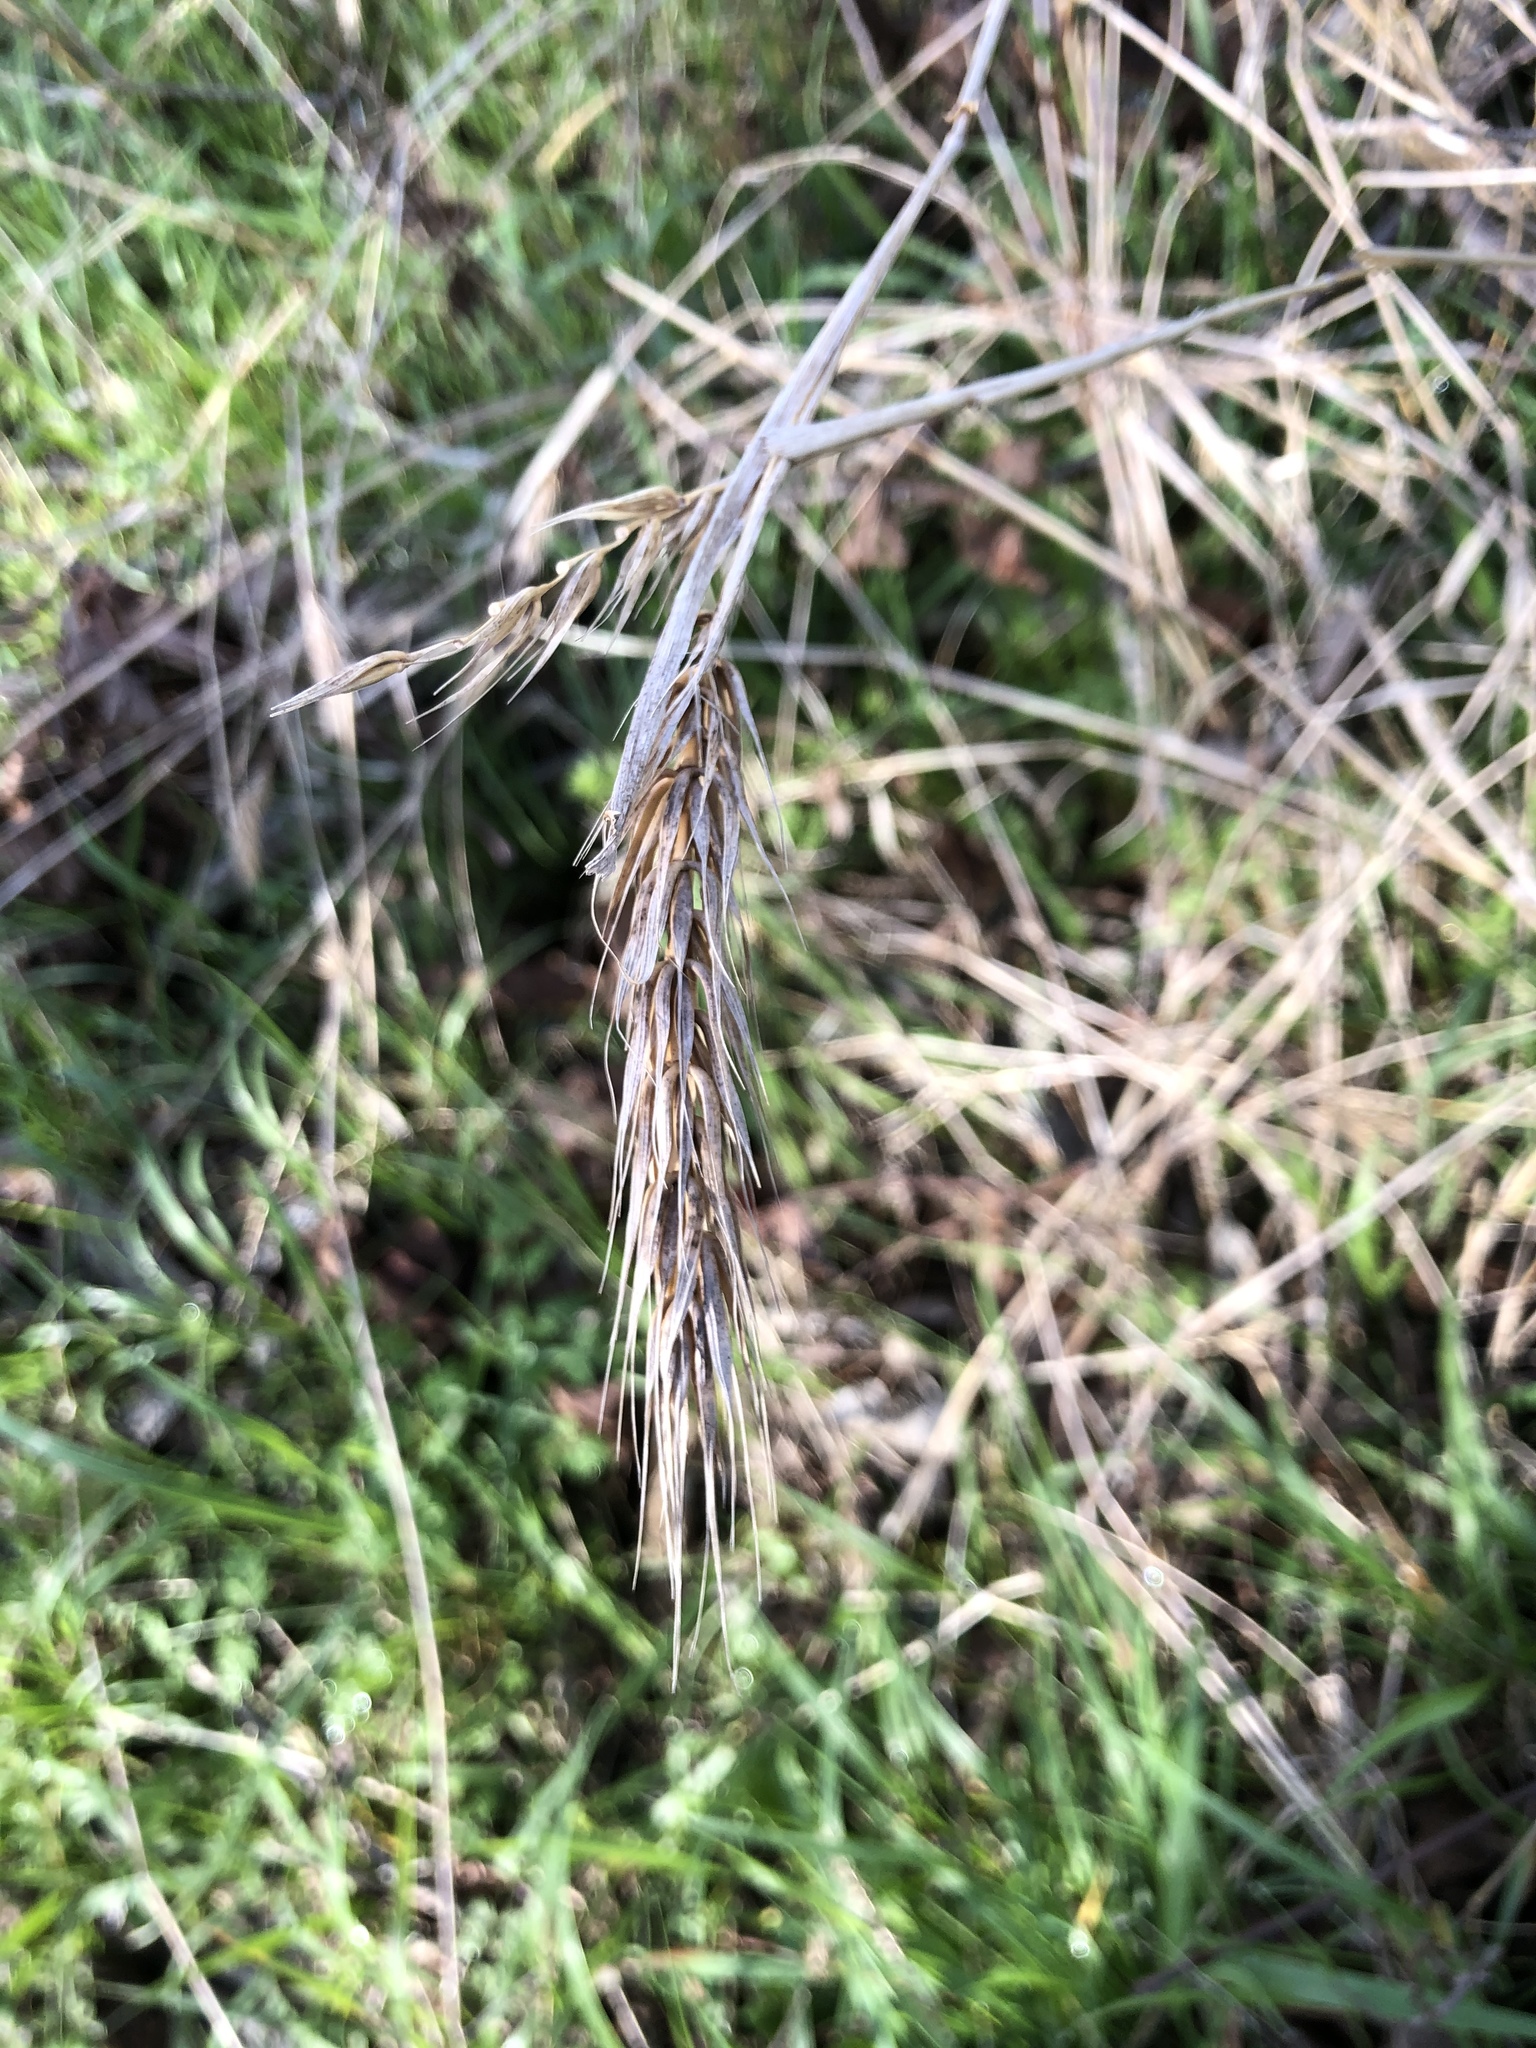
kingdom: Plantae
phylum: Tracheophyta
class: Liliopsida
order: Poales
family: Poaceae
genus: Elymus
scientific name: Elymus virginicus
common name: Common eastern wildrye
